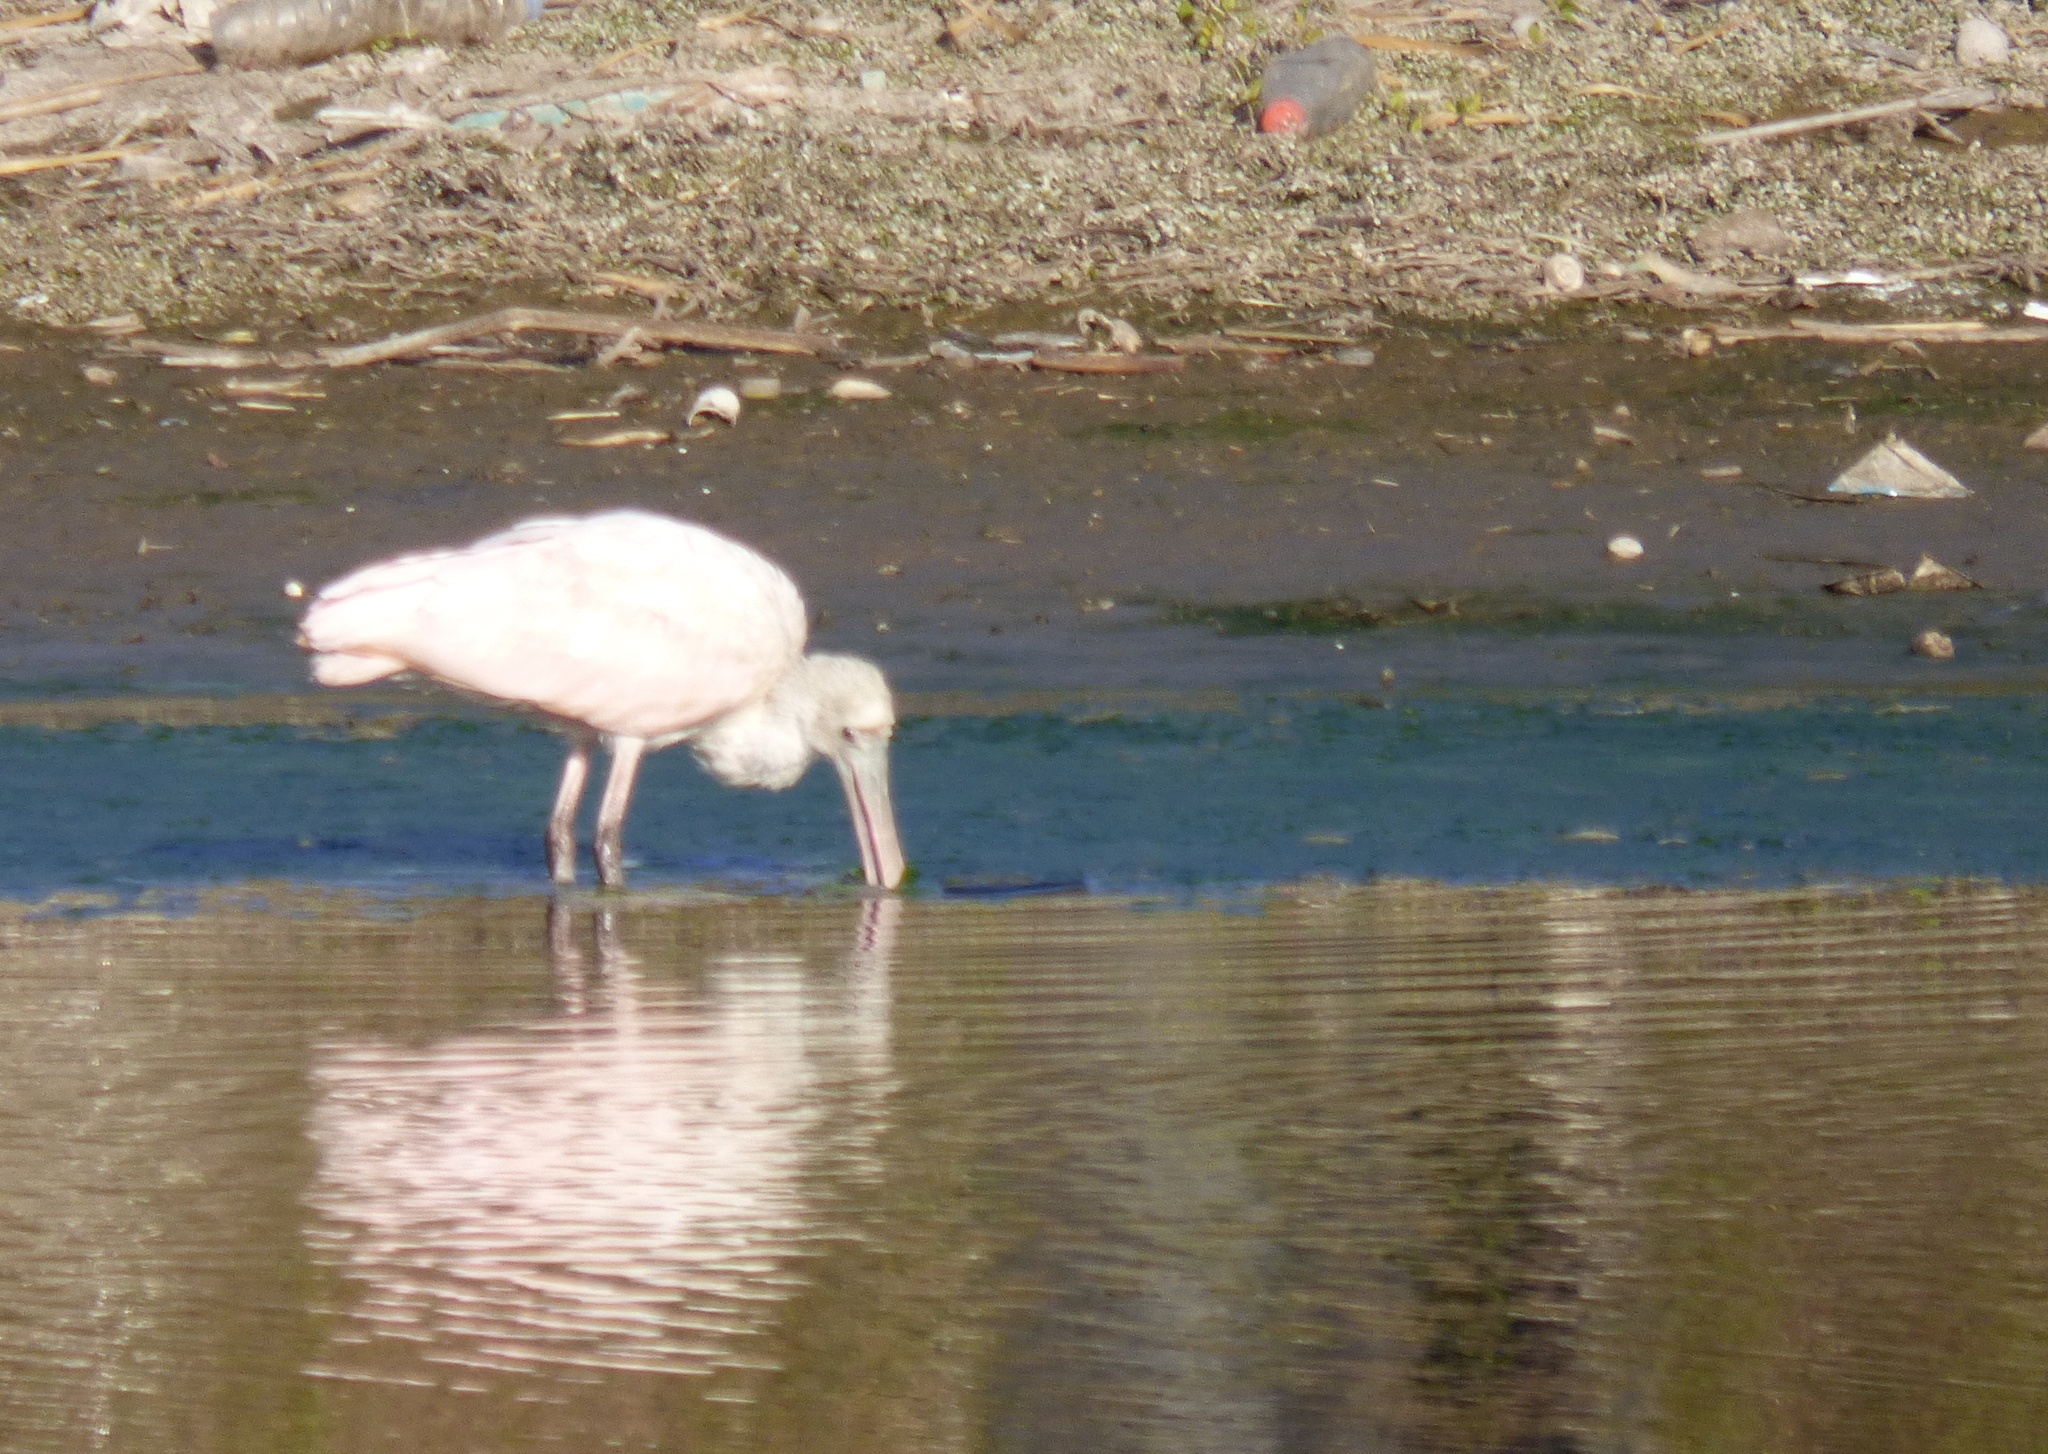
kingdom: Animalia
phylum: Chordata
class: Aves
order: Pelecaniformes
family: Threskiornithidae
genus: Platalea
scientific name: Platalea ajaja
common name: Roseate spoonbill
